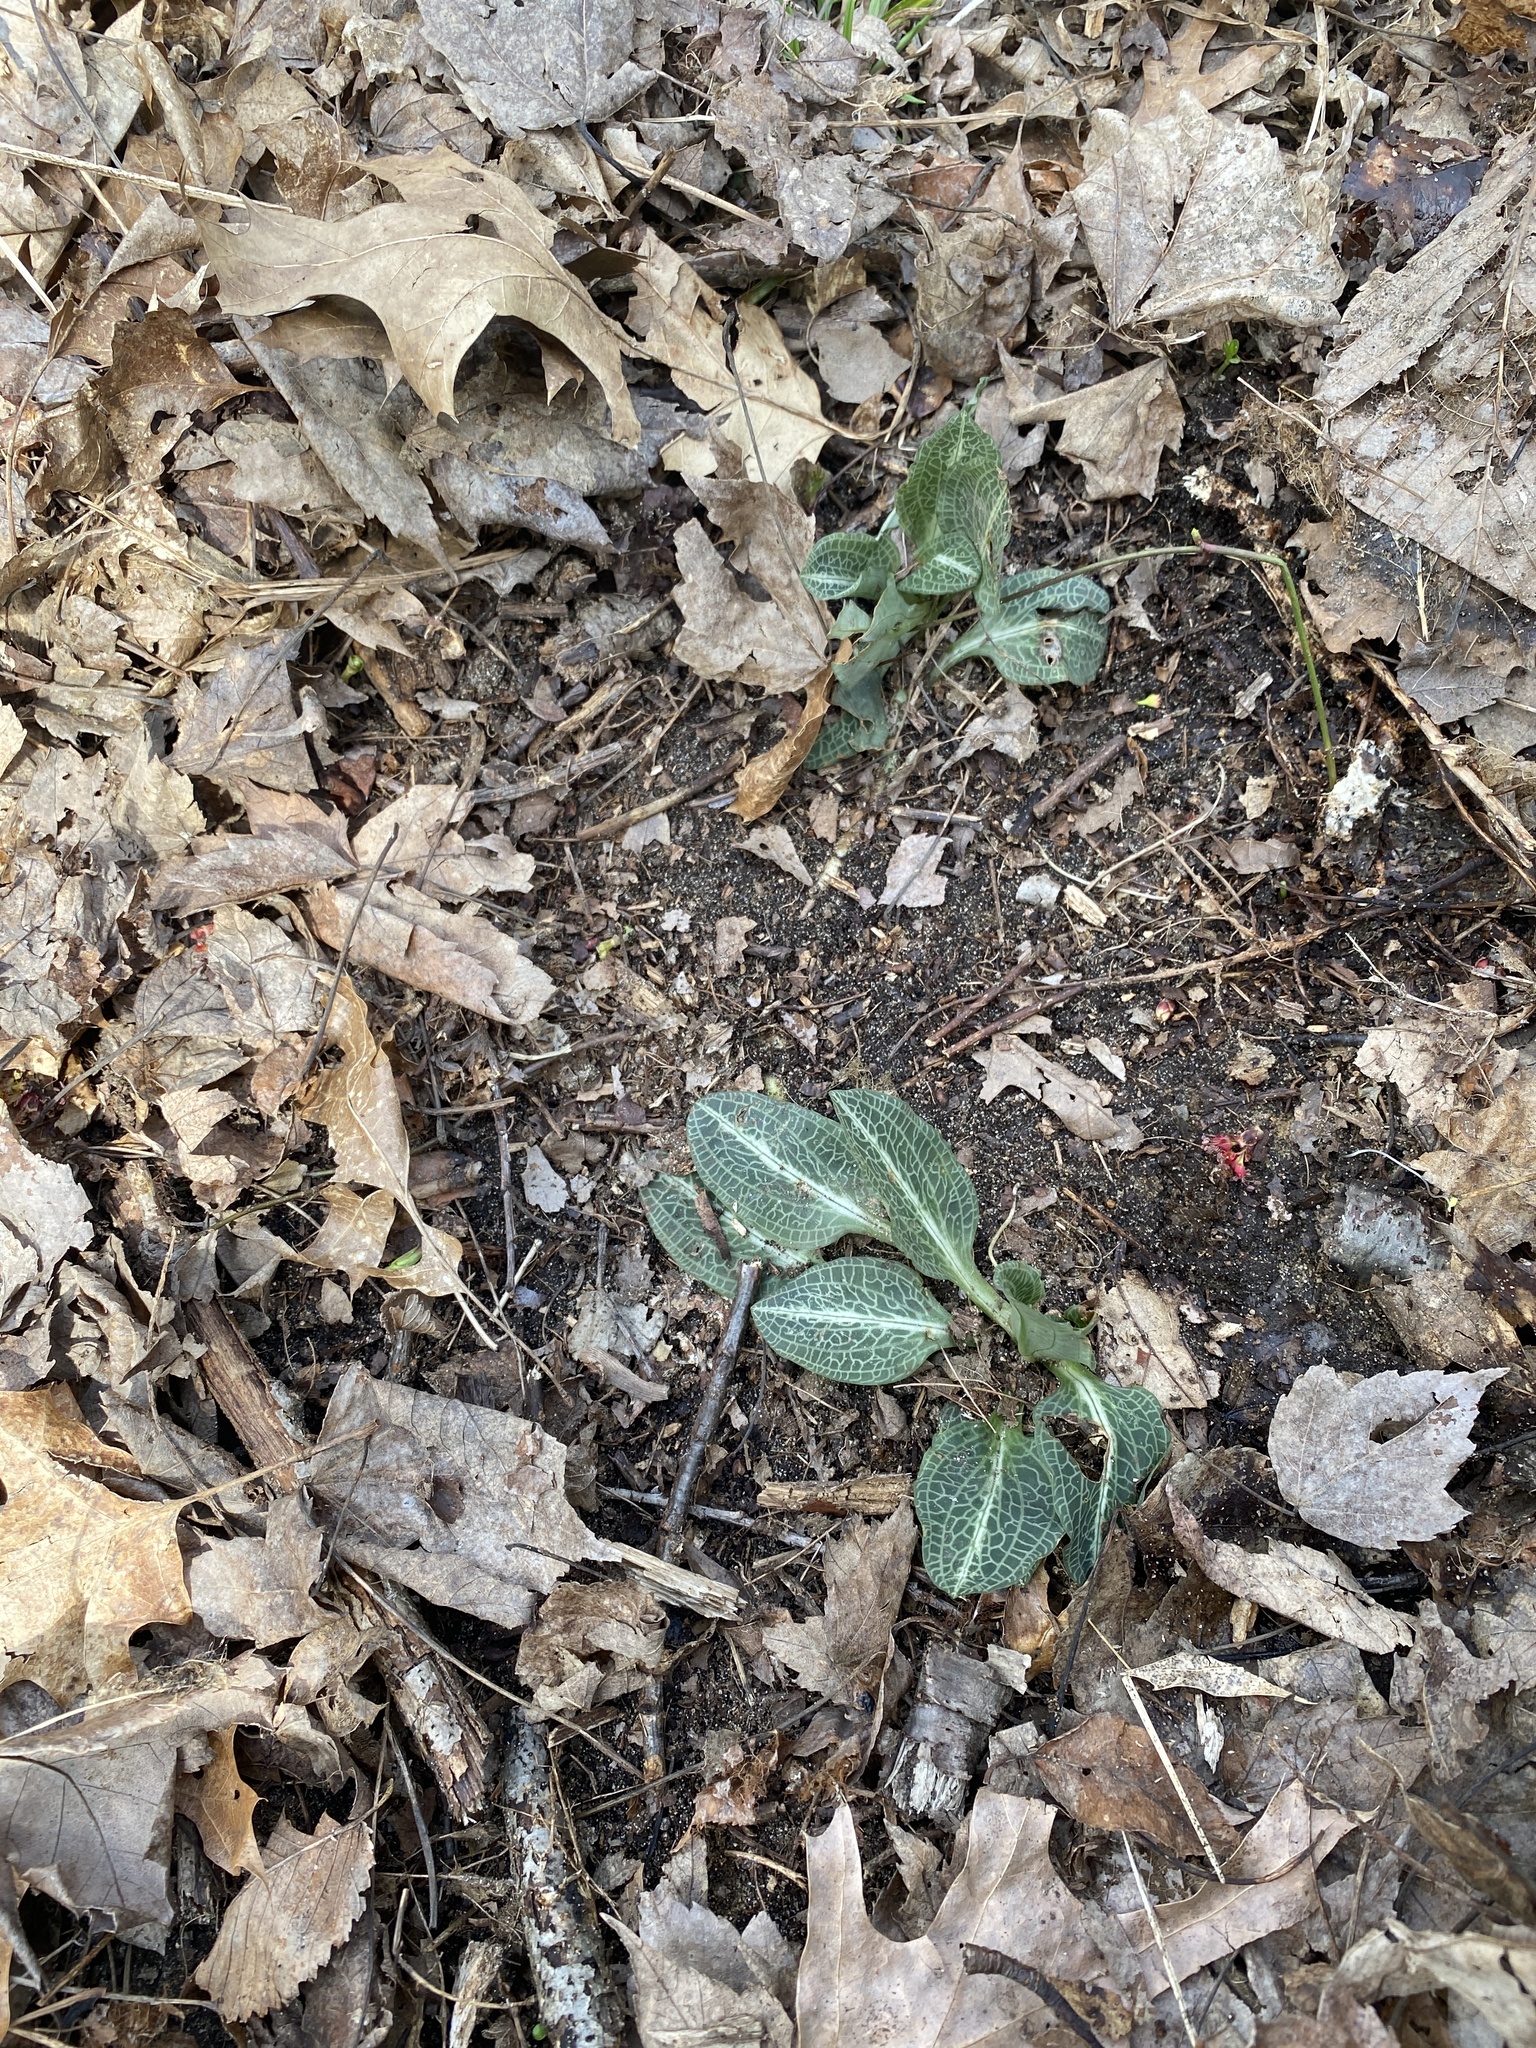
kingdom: Plantae
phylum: Tracheophyta
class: Liliopsida
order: Asparagales
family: Orchidaceae
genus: Goodyera
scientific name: Goodyera pubescens
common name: Downy rattlesnake-plantain
